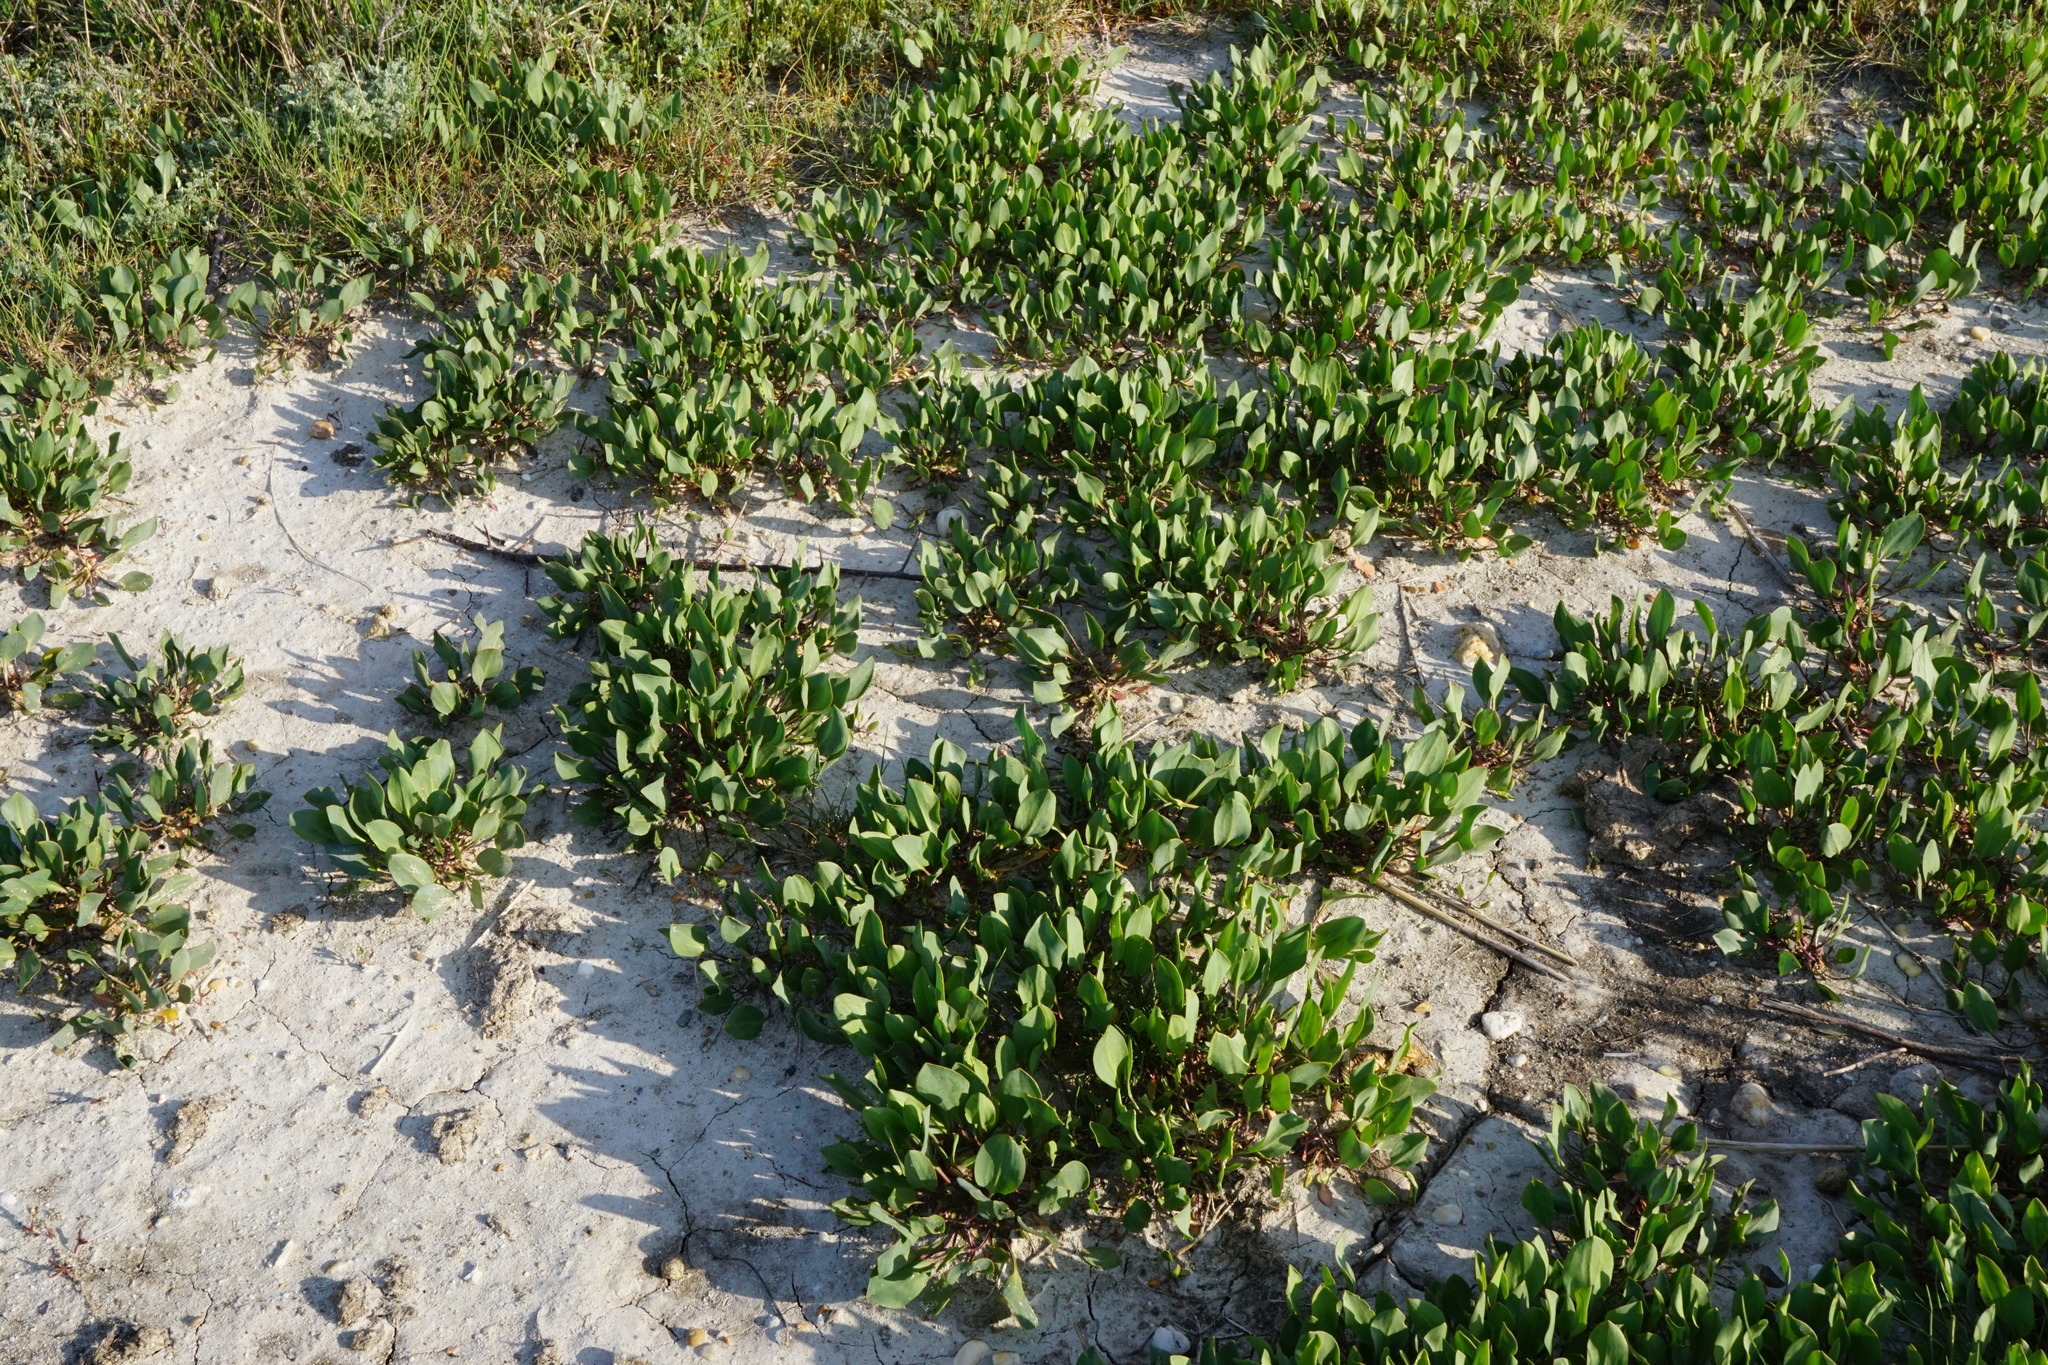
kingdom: Plantae
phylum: Tracheophyta
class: Magnoliopsida
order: Brassicales
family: Brassicaceae
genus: Lepidium
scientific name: Lepidium cartilagineum
